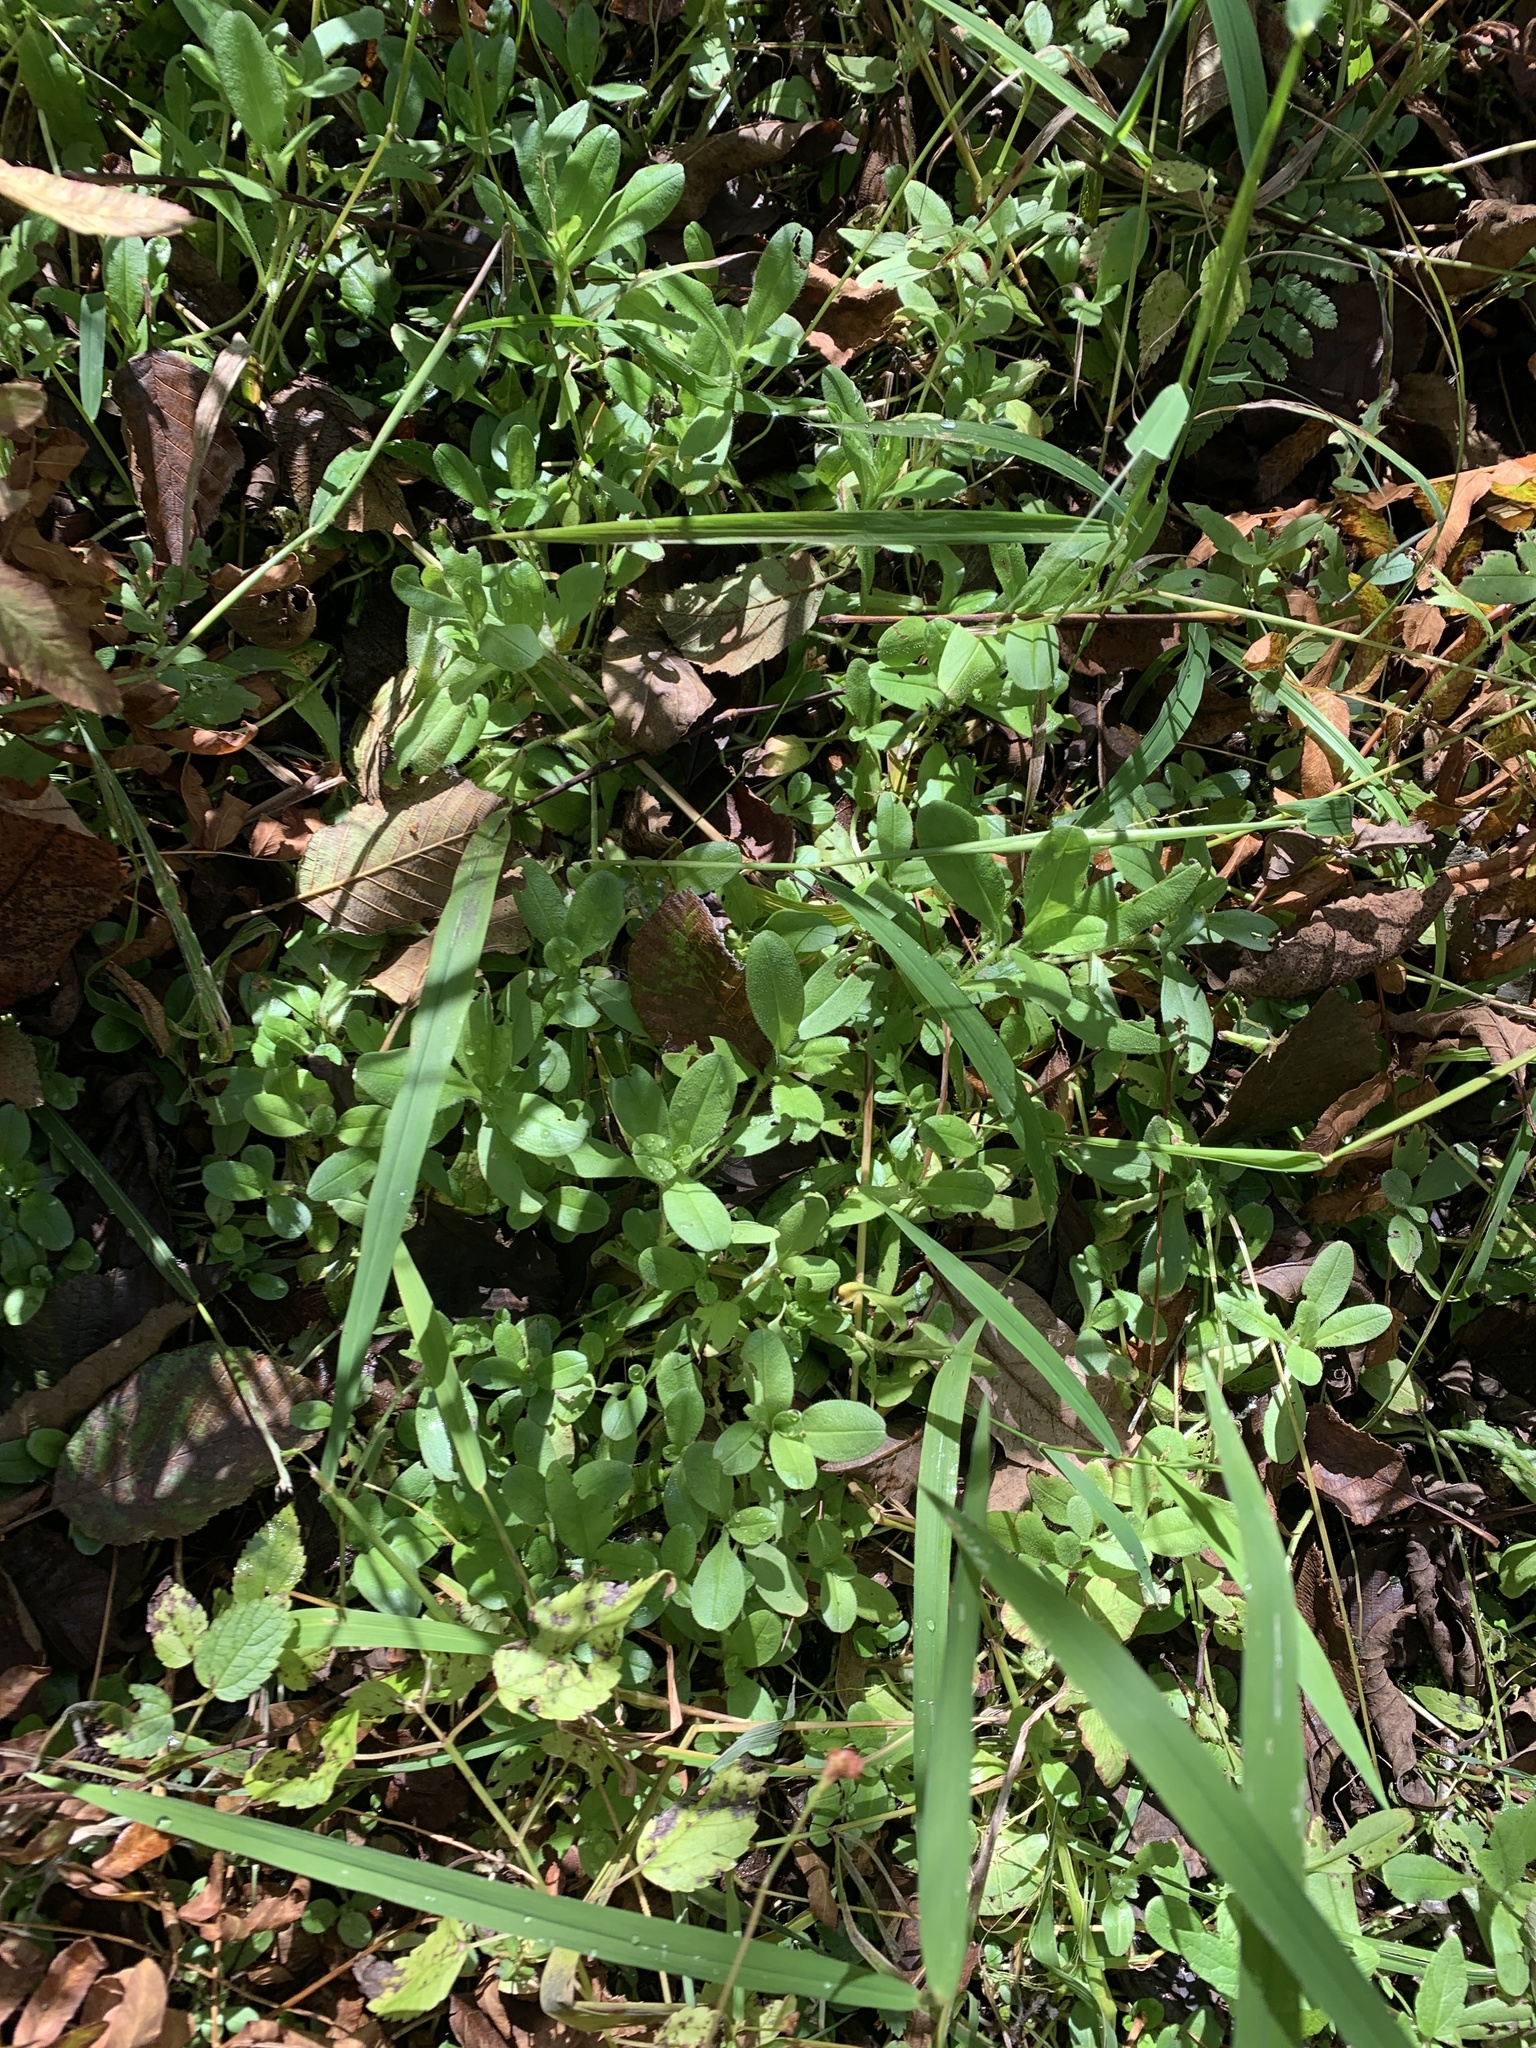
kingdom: Plantae
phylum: Tracheophyta
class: Magnoliopsida
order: Boraginales
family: Boraginaceae
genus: Myosotis
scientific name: Myosotis scorpioides
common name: Water forget-me-not
